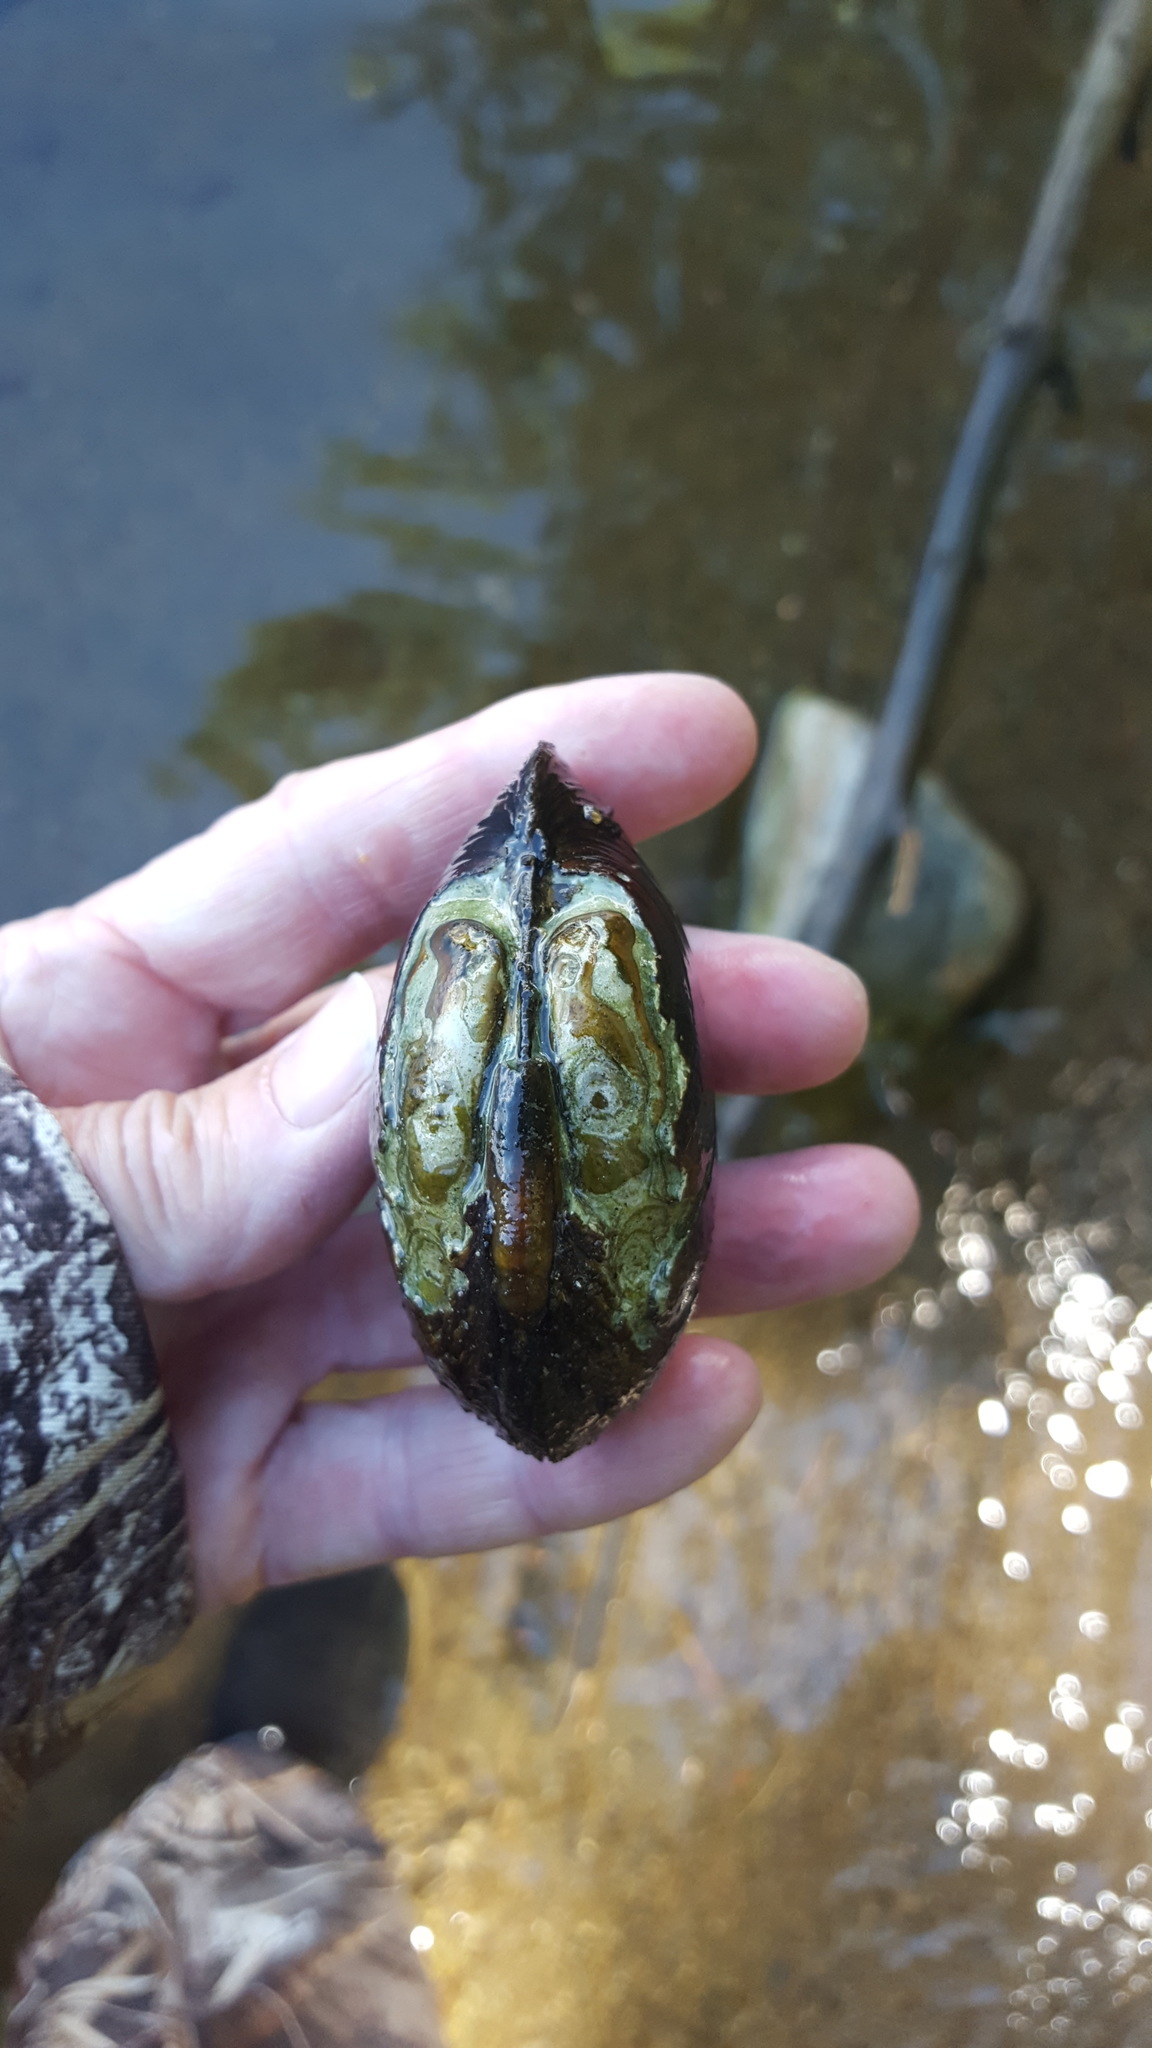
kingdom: Animalia
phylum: Mollusca
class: Bivalvia
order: Unionida
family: Unionidae
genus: Lampsilis
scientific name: Lampsilis cardium
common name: Plain pocketbook
